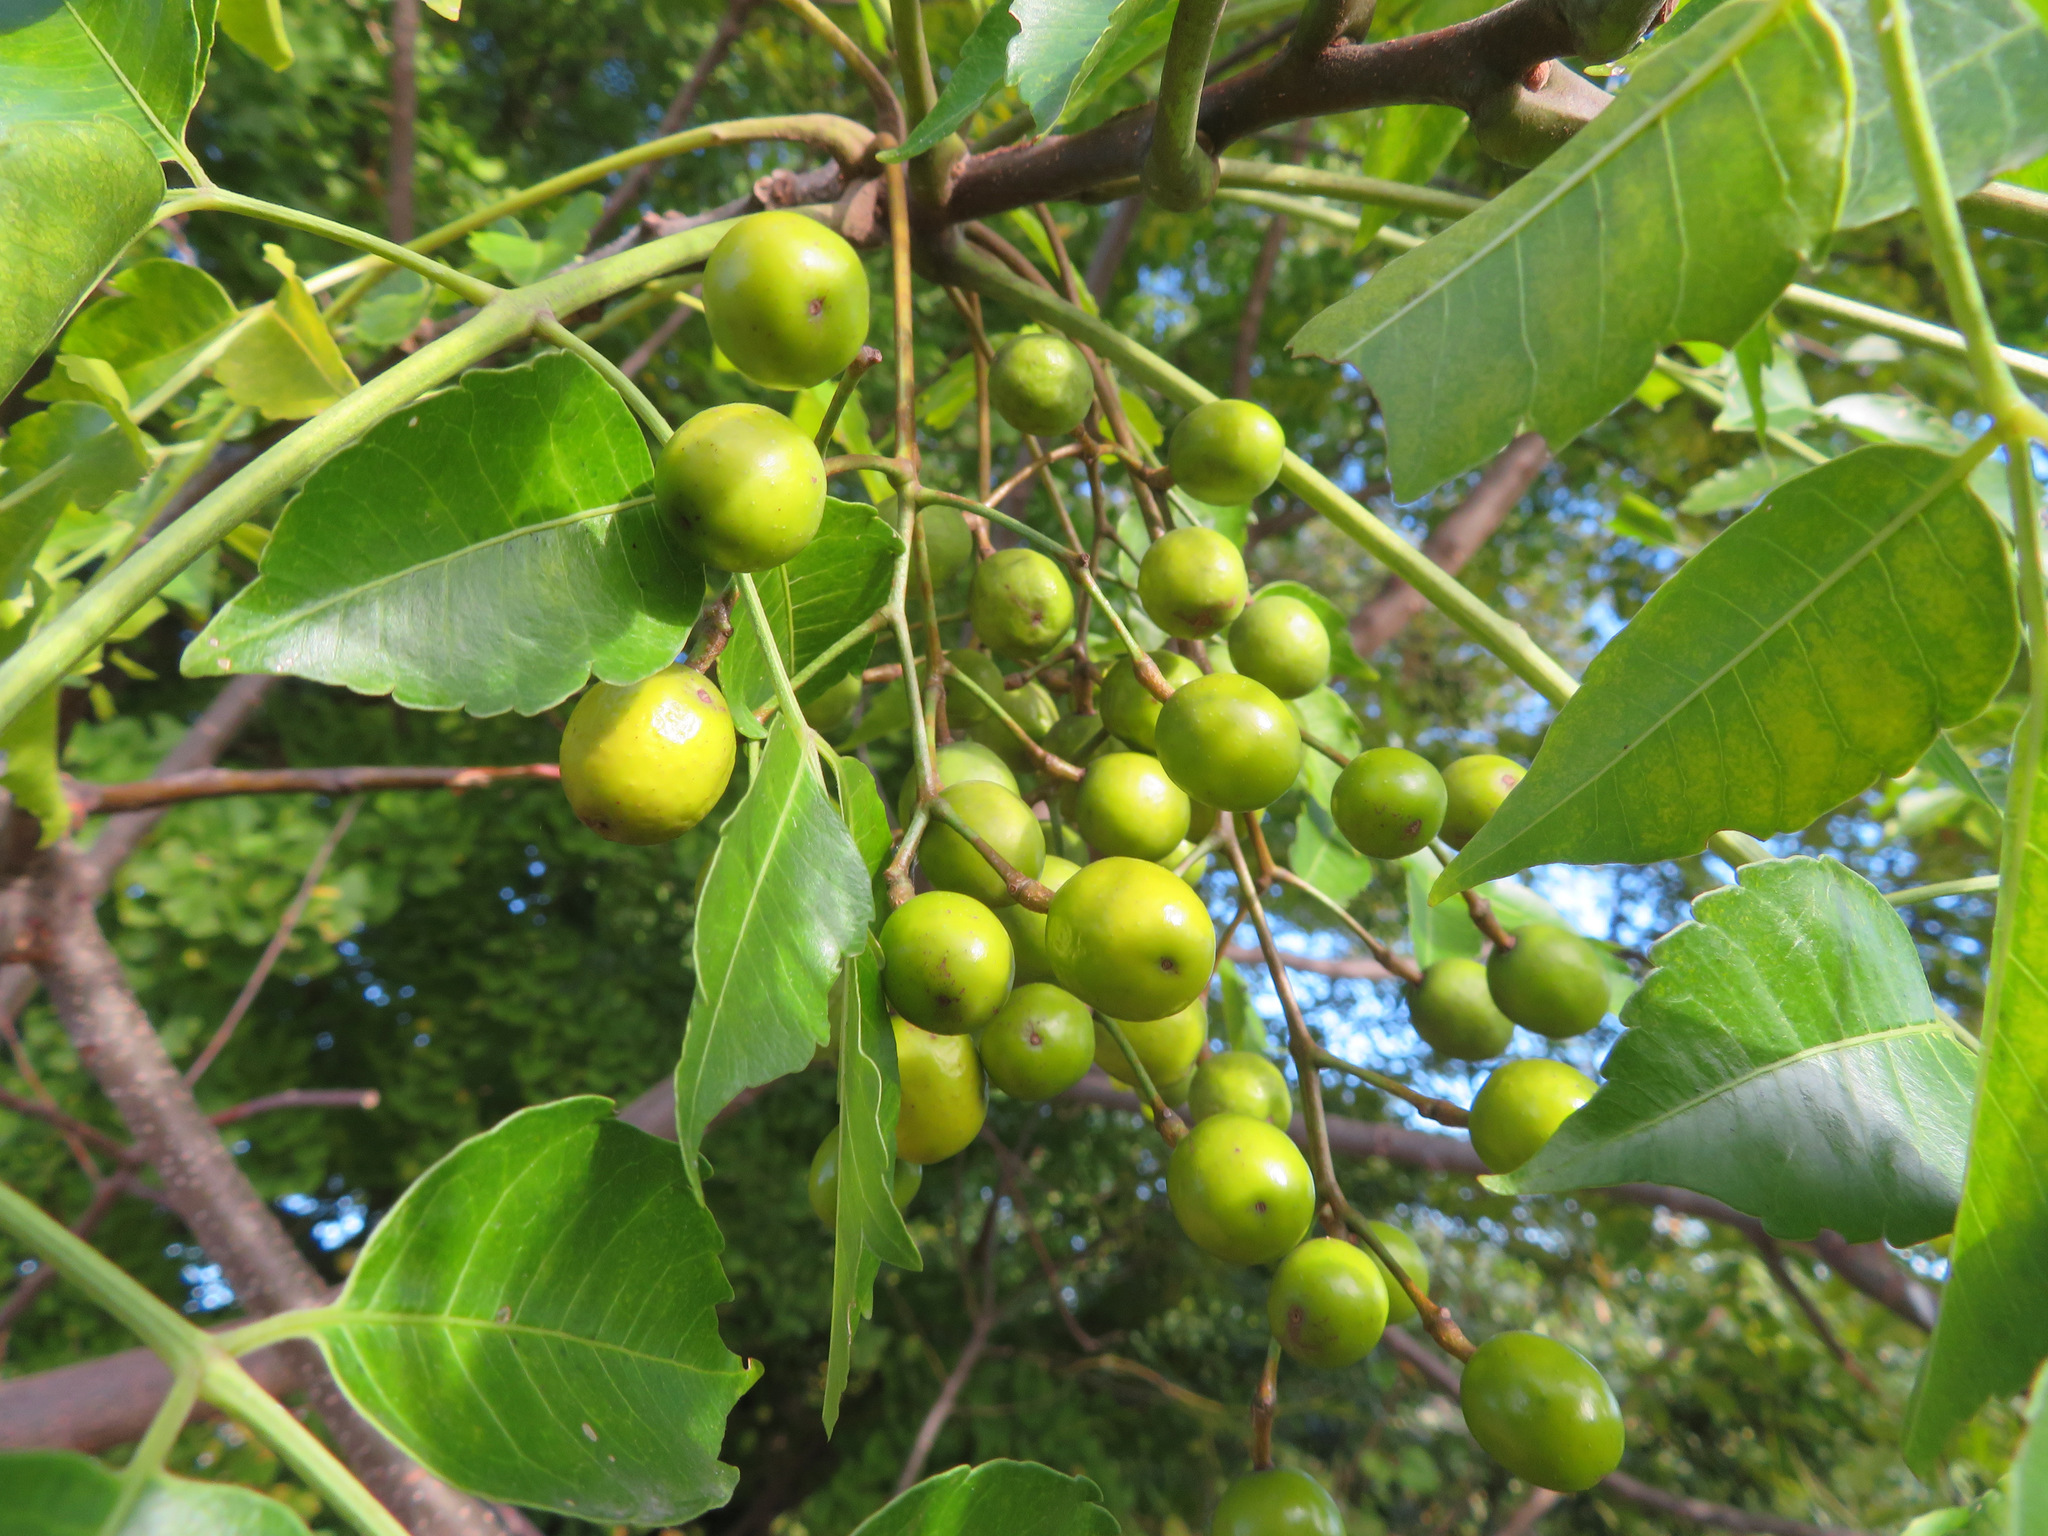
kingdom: Plantae
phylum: Tracheophyta
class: Magnoliopsida
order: Sapindales
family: Meliaceae
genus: Melia
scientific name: Melia azedarach
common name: Chinaberrytree
